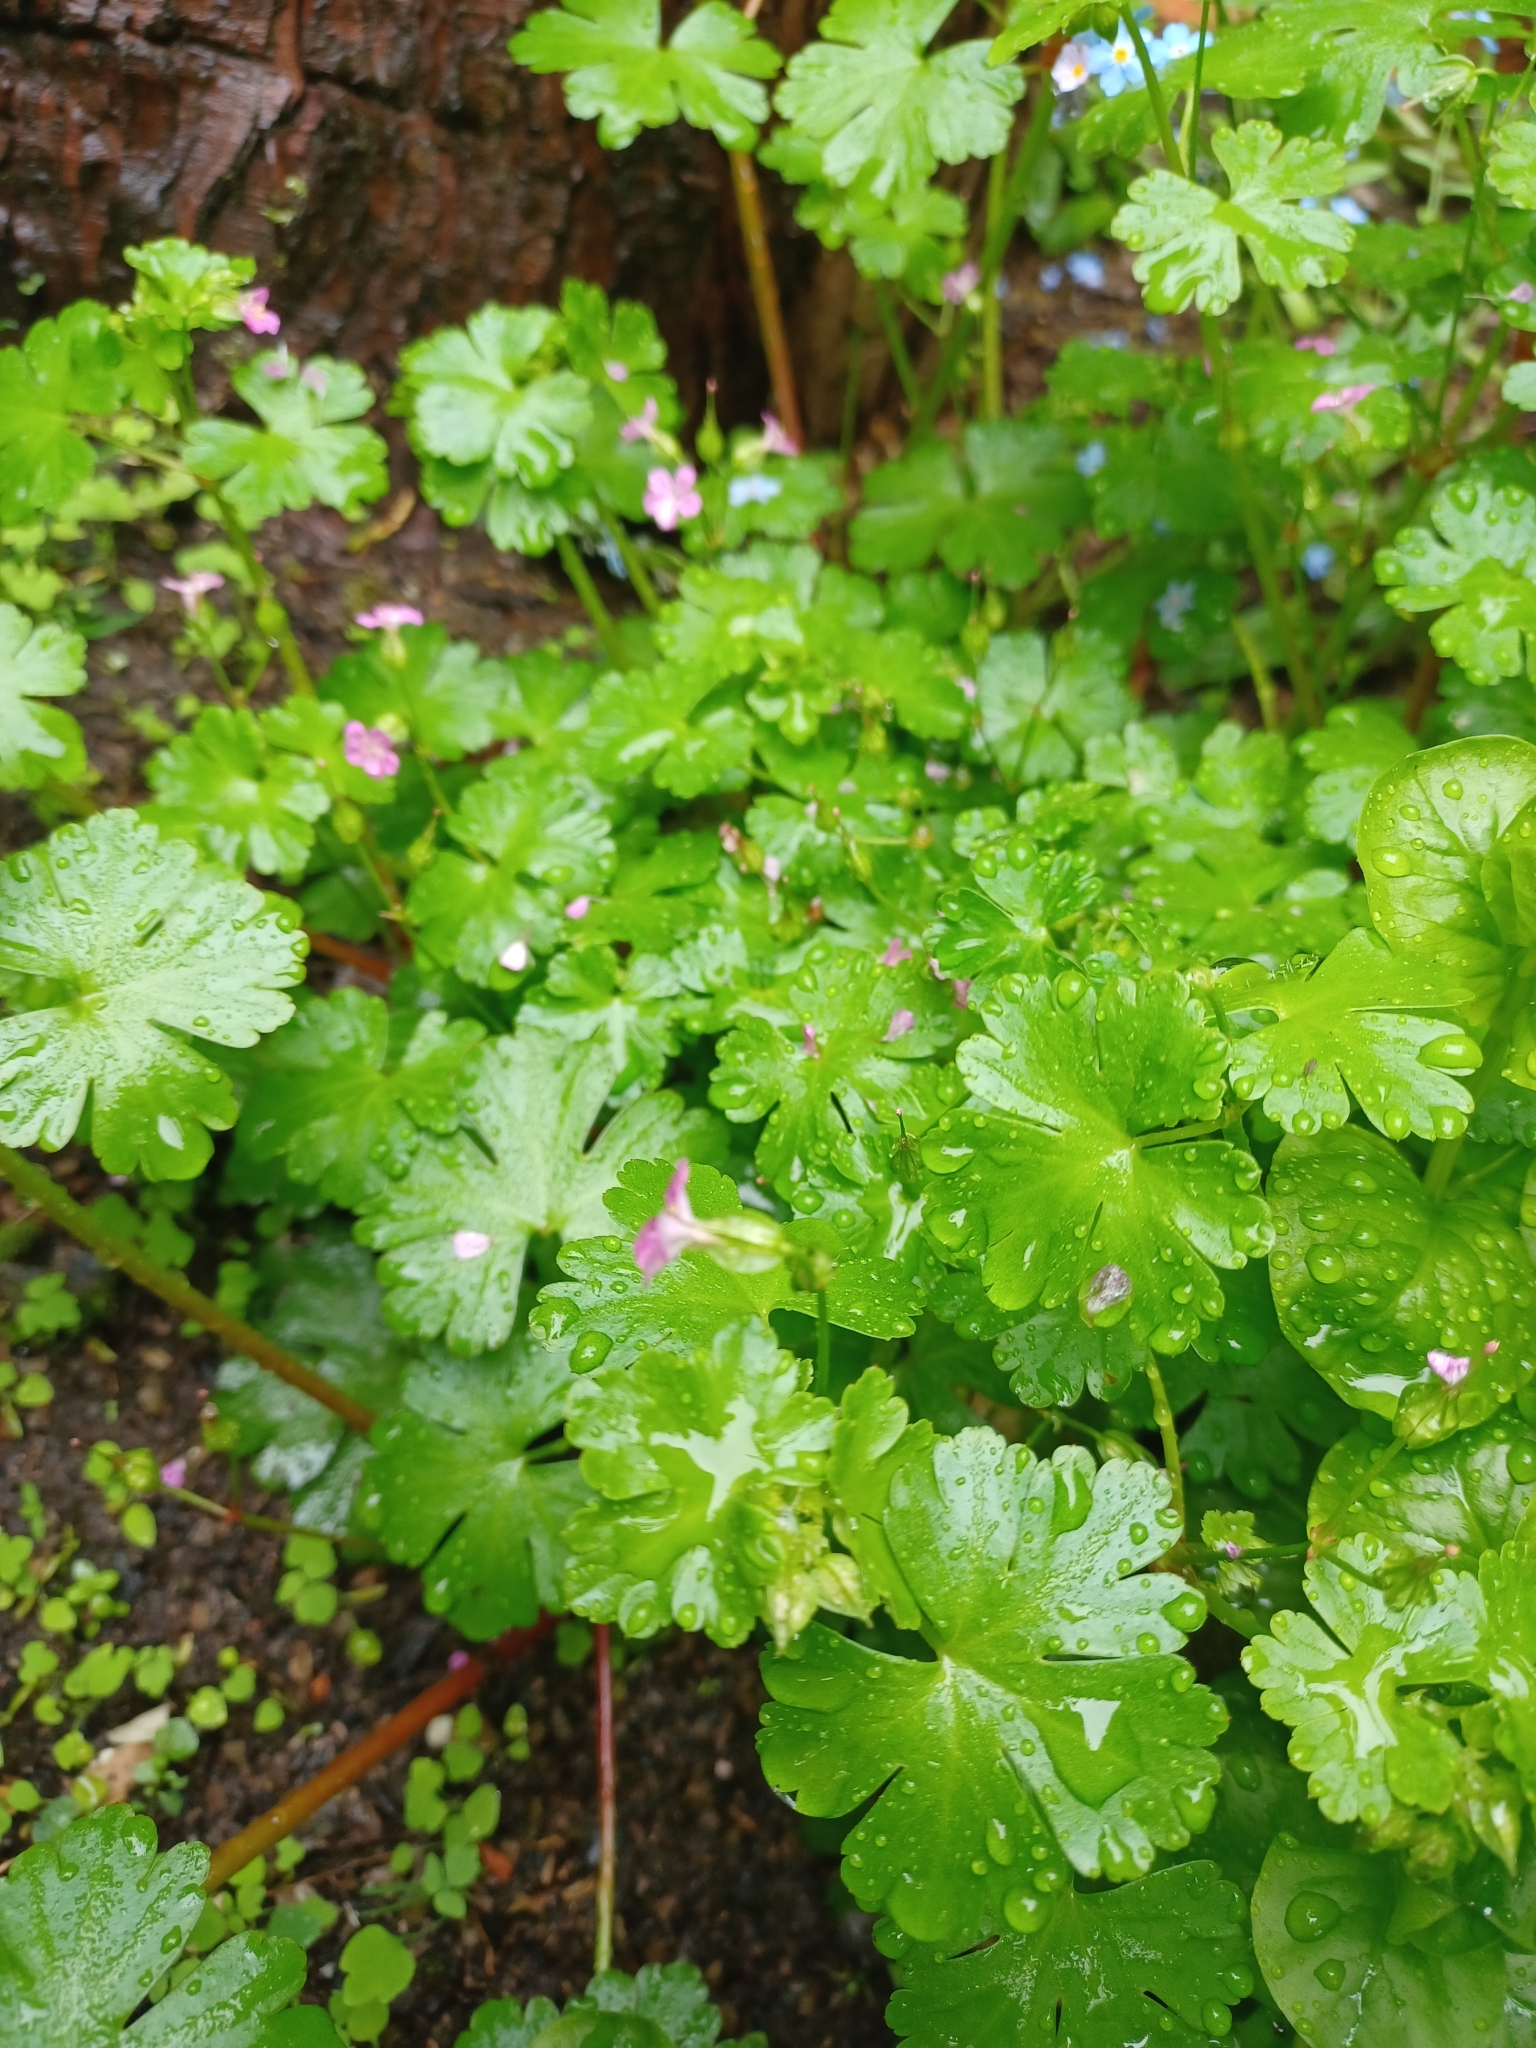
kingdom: Plantae
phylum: Tracheophyta
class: Magnoliopsida
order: Geraniales
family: Geraniaceae
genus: Geranium
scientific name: Geranium lucidum
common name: Shining crane's-bill
